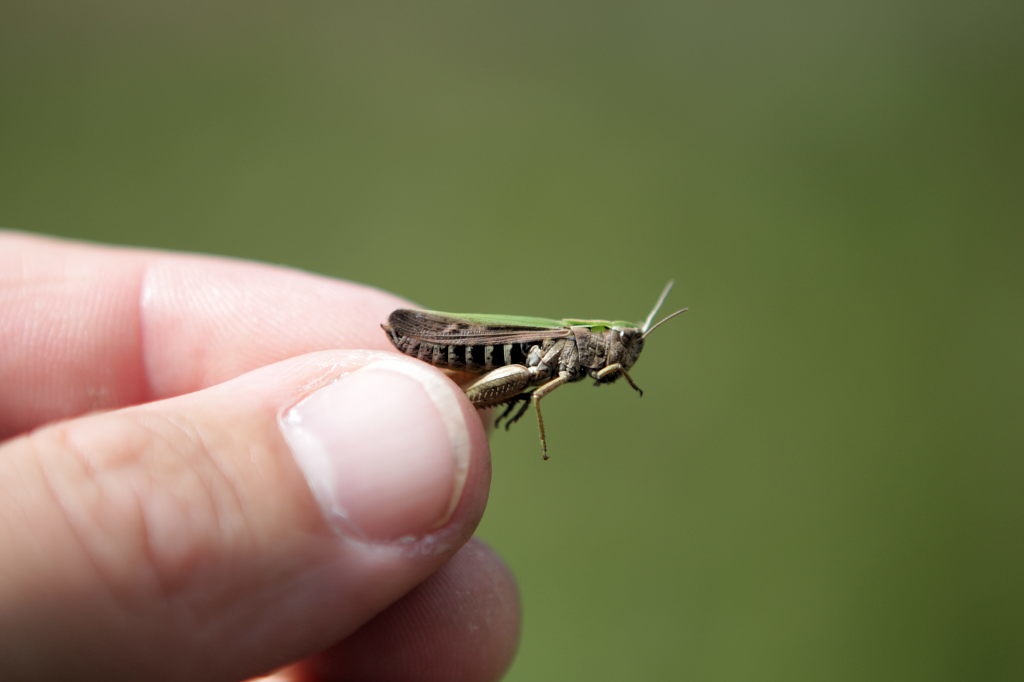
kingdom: Animalia
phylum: Arthropoda
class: Insecta
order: Orthoptera
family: Acrididae
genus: Omocestus
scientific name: Omocestus viridulus
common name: Common green grasshopper
